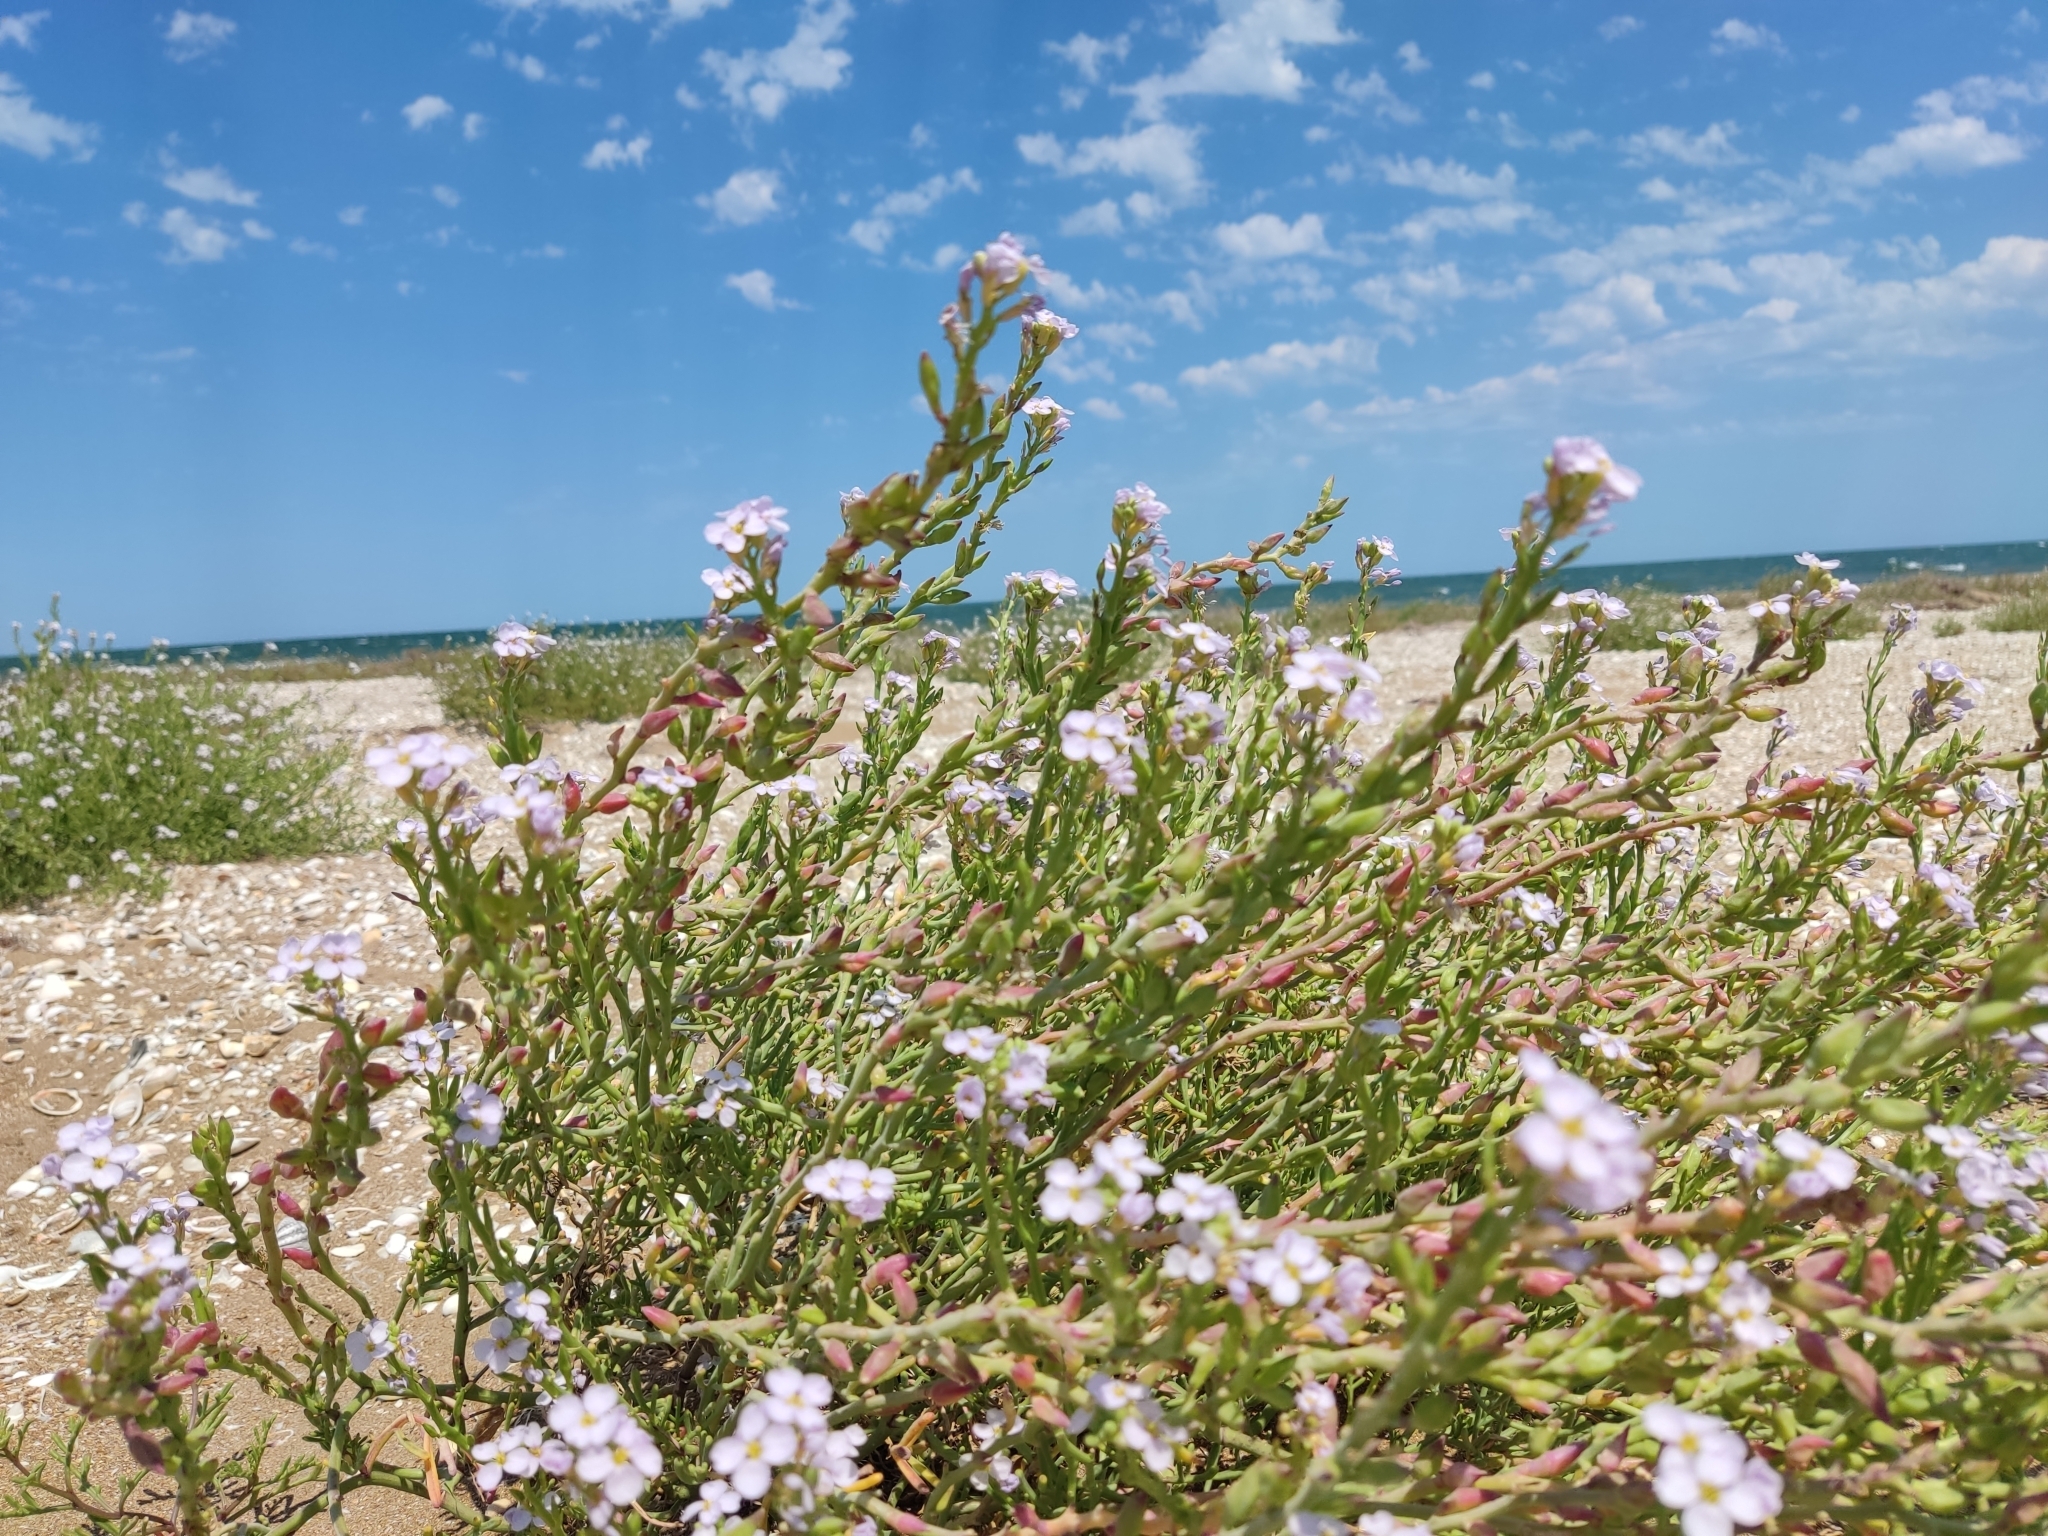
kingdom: Plantae
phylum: Tracheophyta
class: Magnoliopsida
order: Brassicales
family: Brassicaceae
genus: Cakile
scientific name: Cakile maritima
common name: Sea rocket
